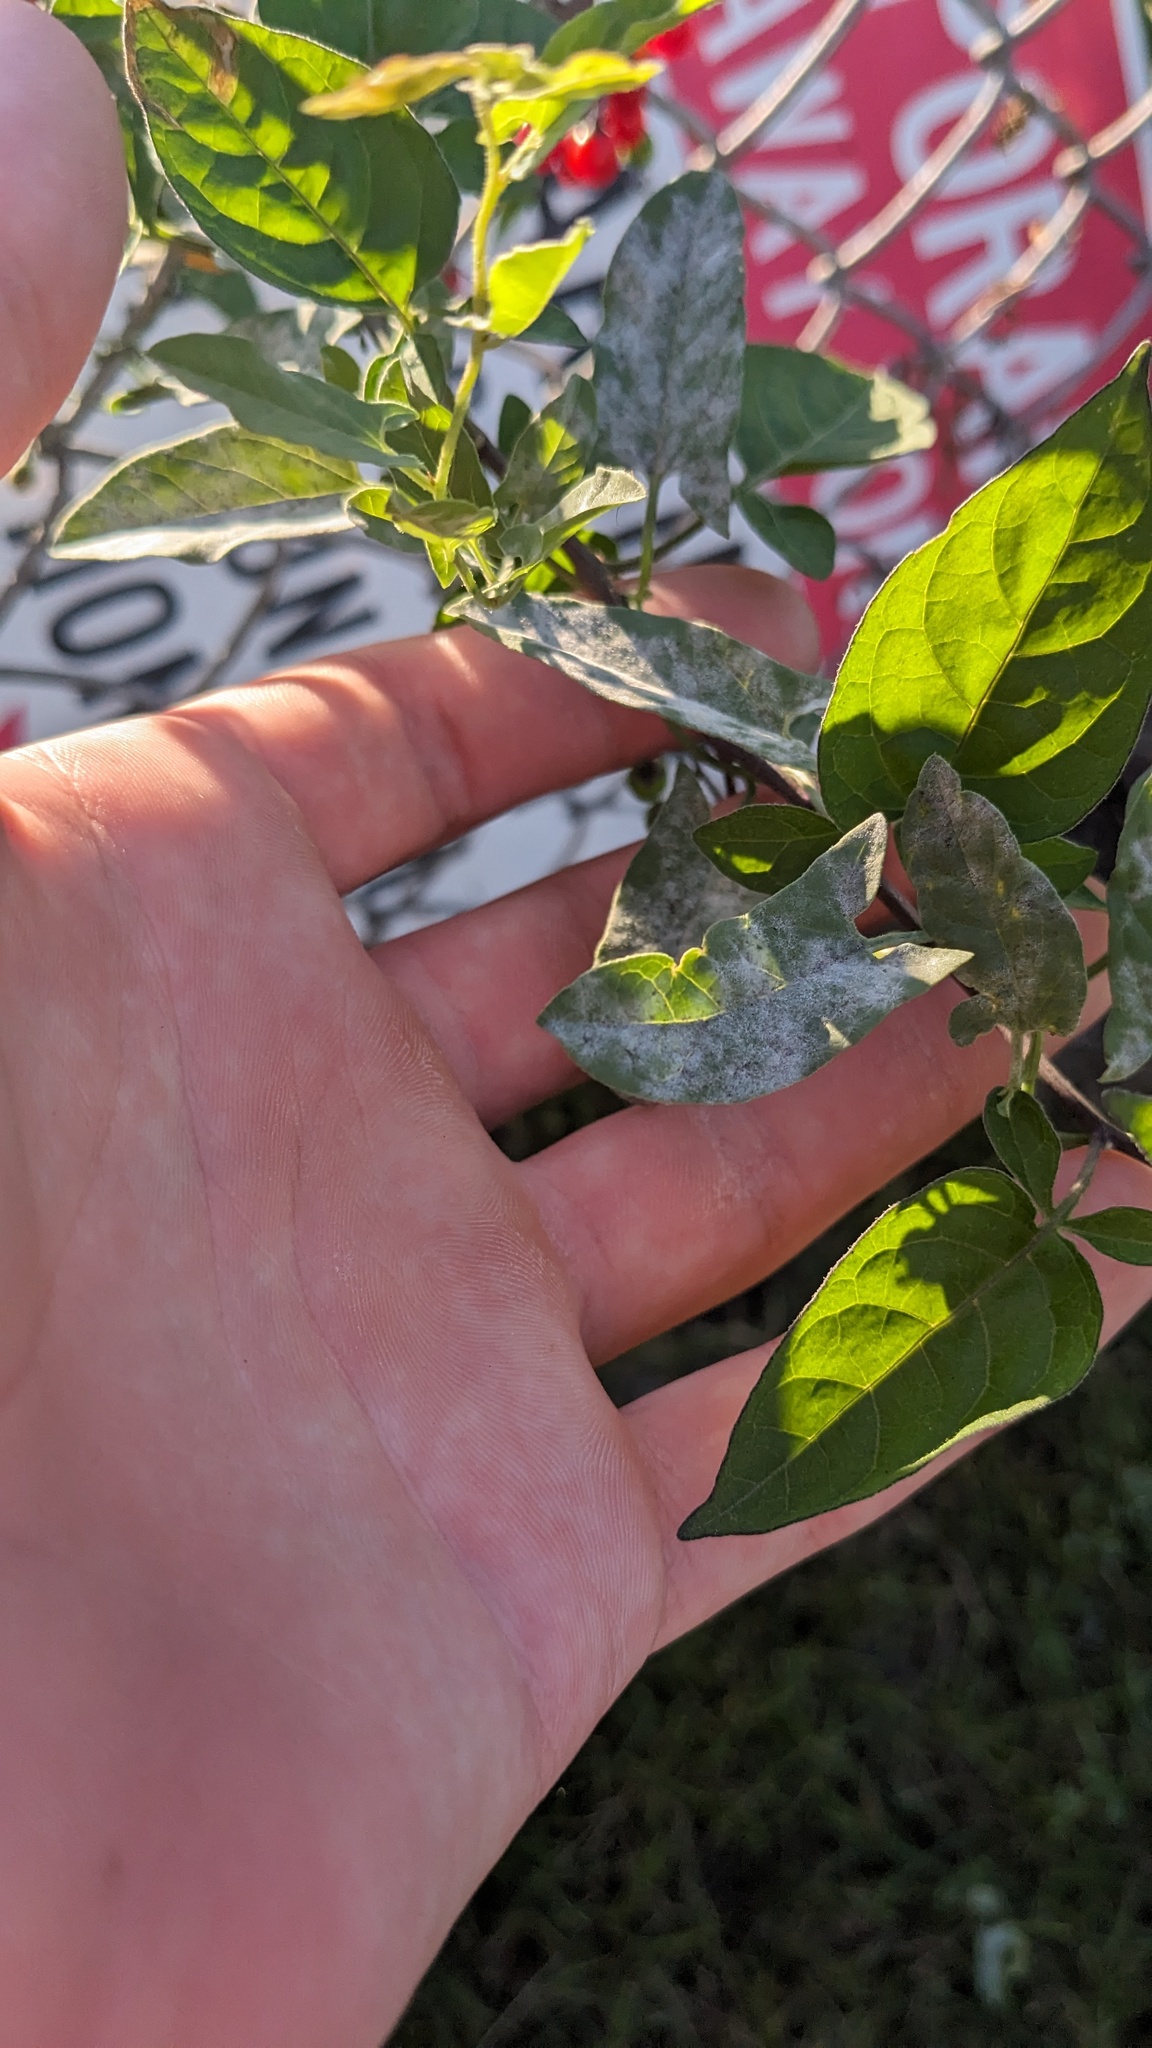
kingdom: Fungi
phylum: Ascomycota
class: Leotiomycetes
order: Helotiales
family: Erysiphaceae
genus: Erysiphe
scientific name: Erysiphe convolvuli
